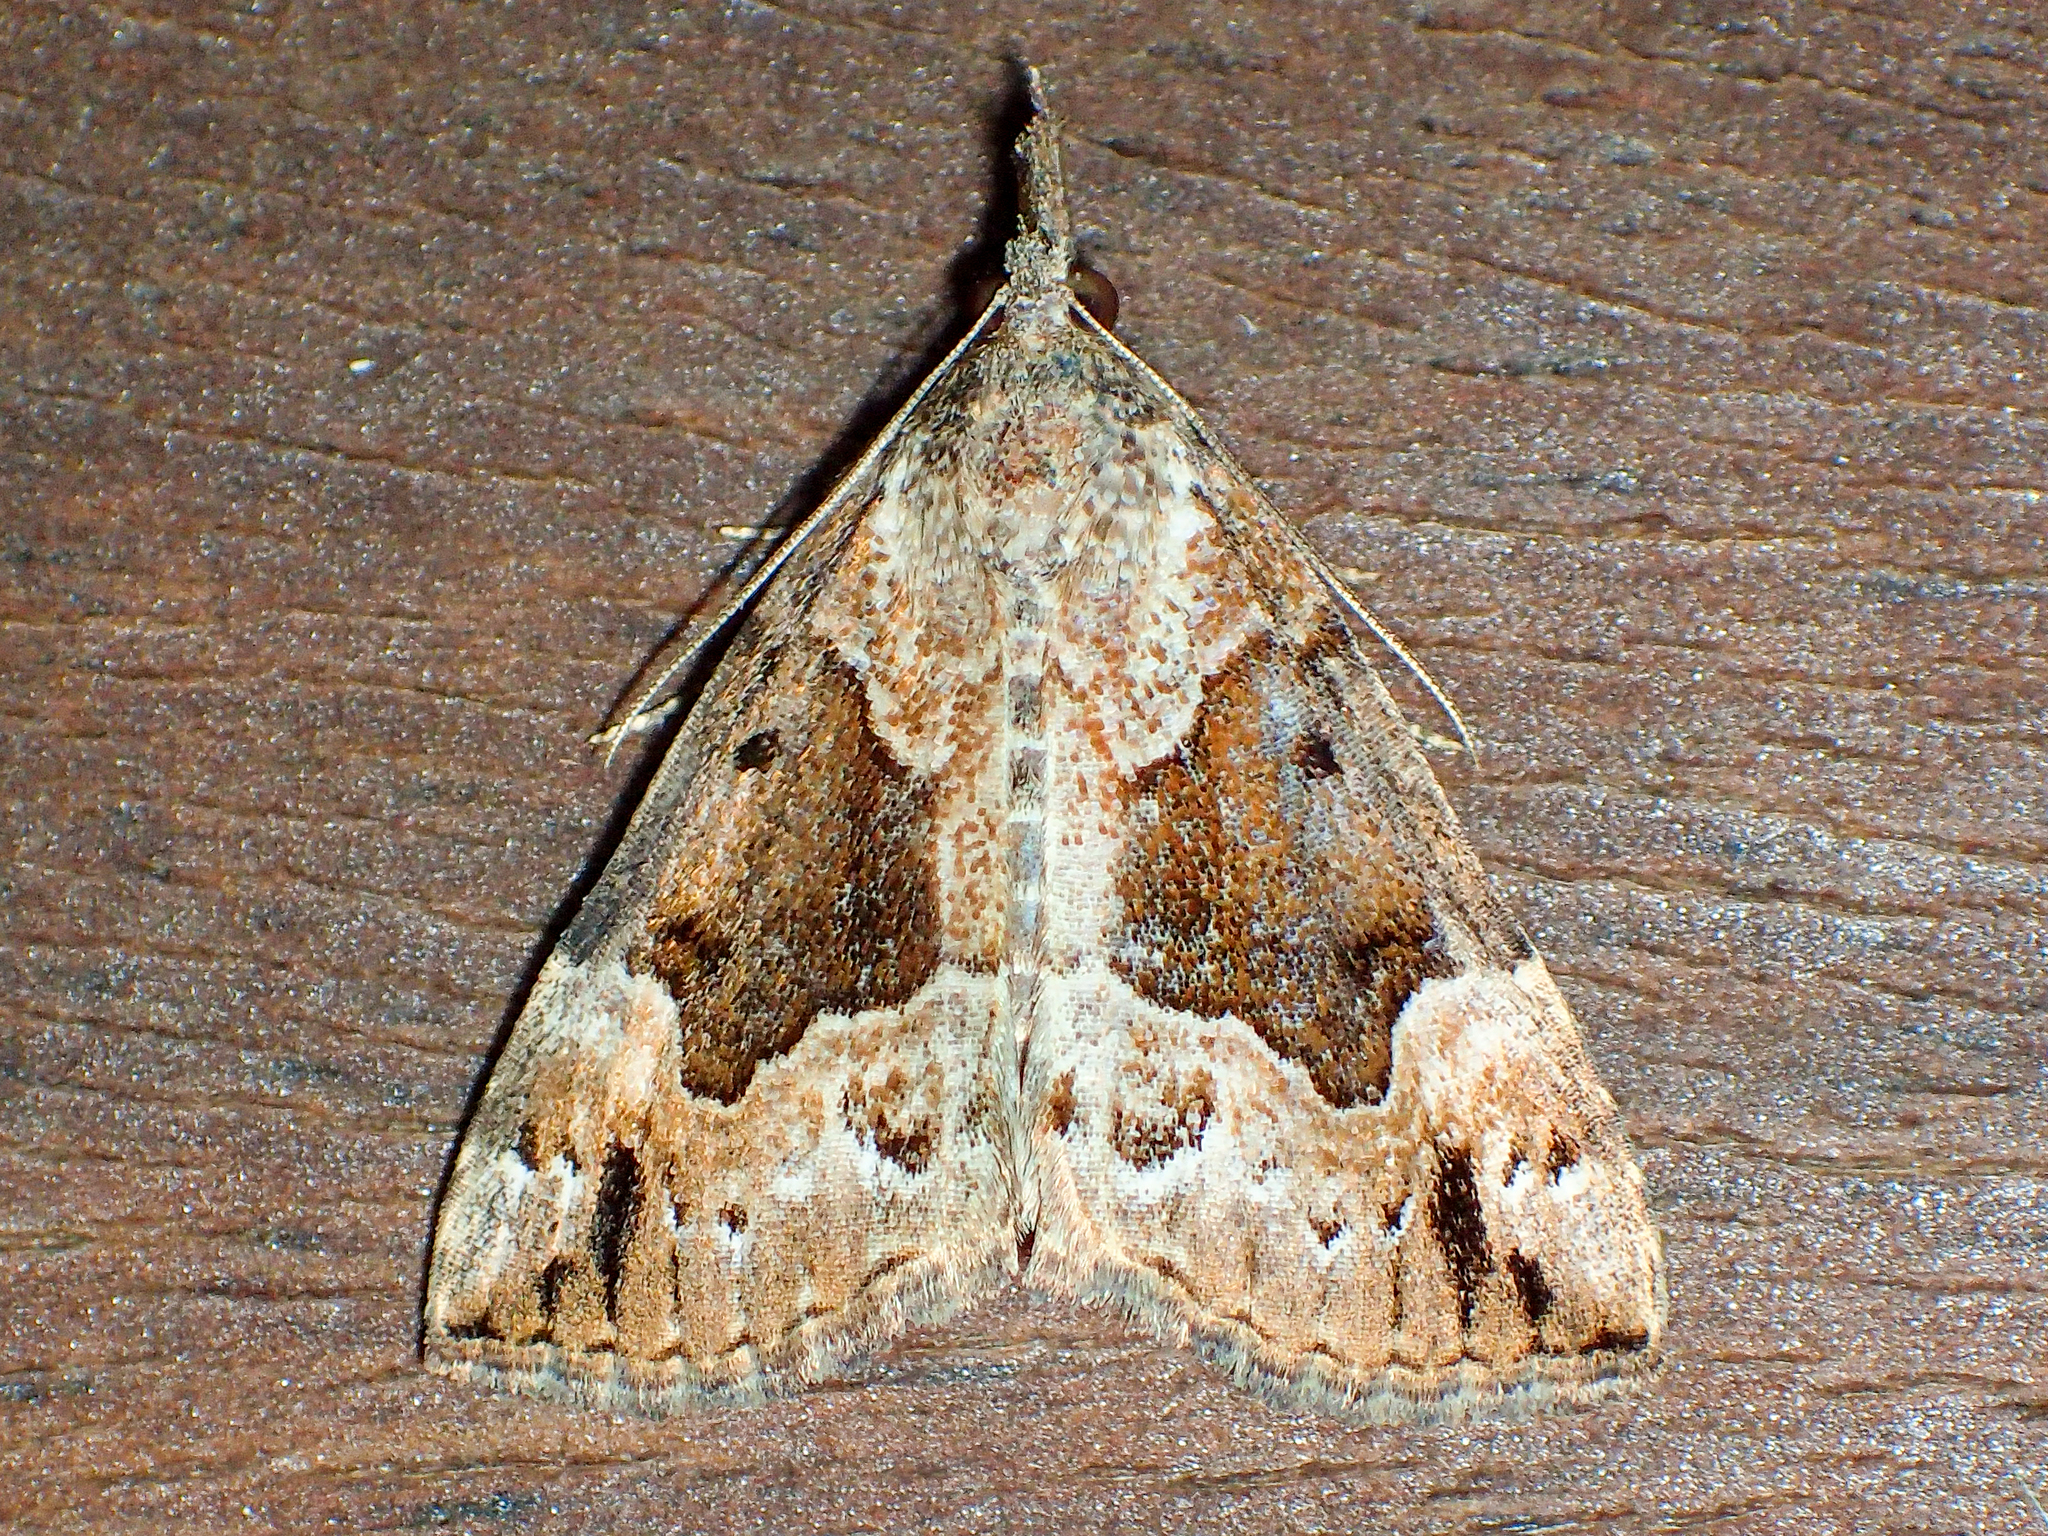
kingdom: Animalia
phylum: Arthropoda
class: Insecta
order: Lepidoptera
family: Erebidae
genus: Hypena
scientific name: Hypena palparia
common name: Mottled bomolocha moth
